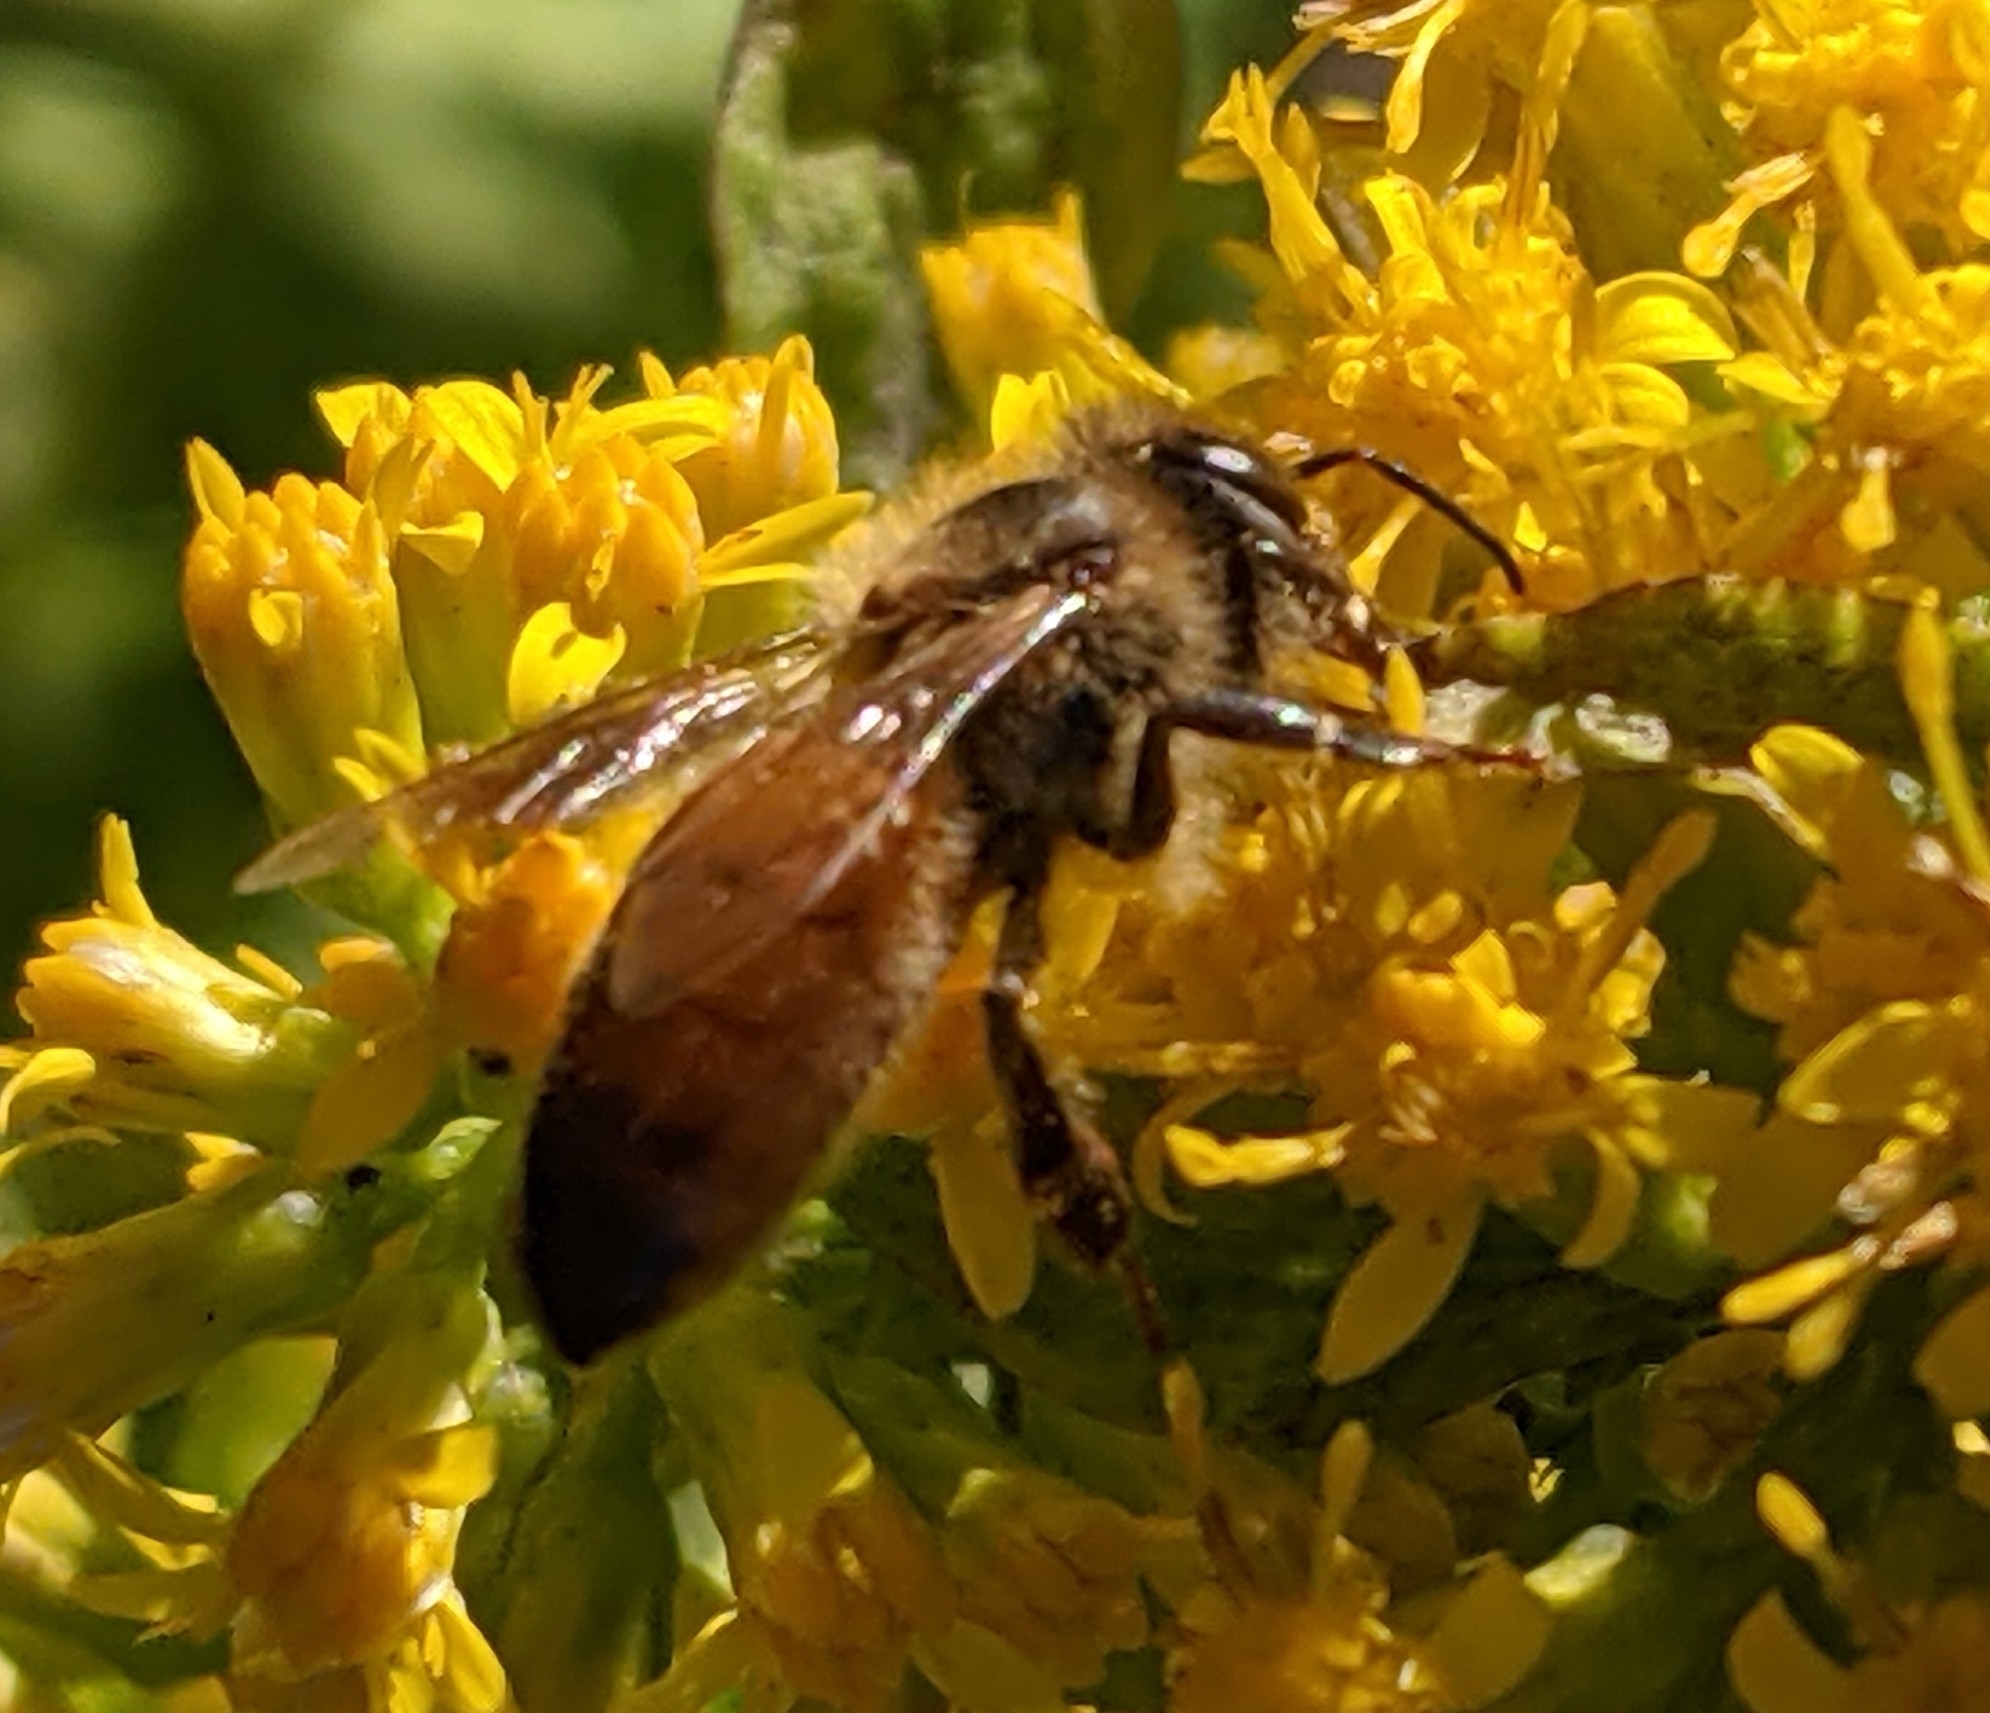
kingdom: Animalia
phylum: Arthropoda
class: Insecta
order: Hymenoptera
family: Apidae
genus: Apis
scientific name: Apis mellifera
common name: Honey bee
